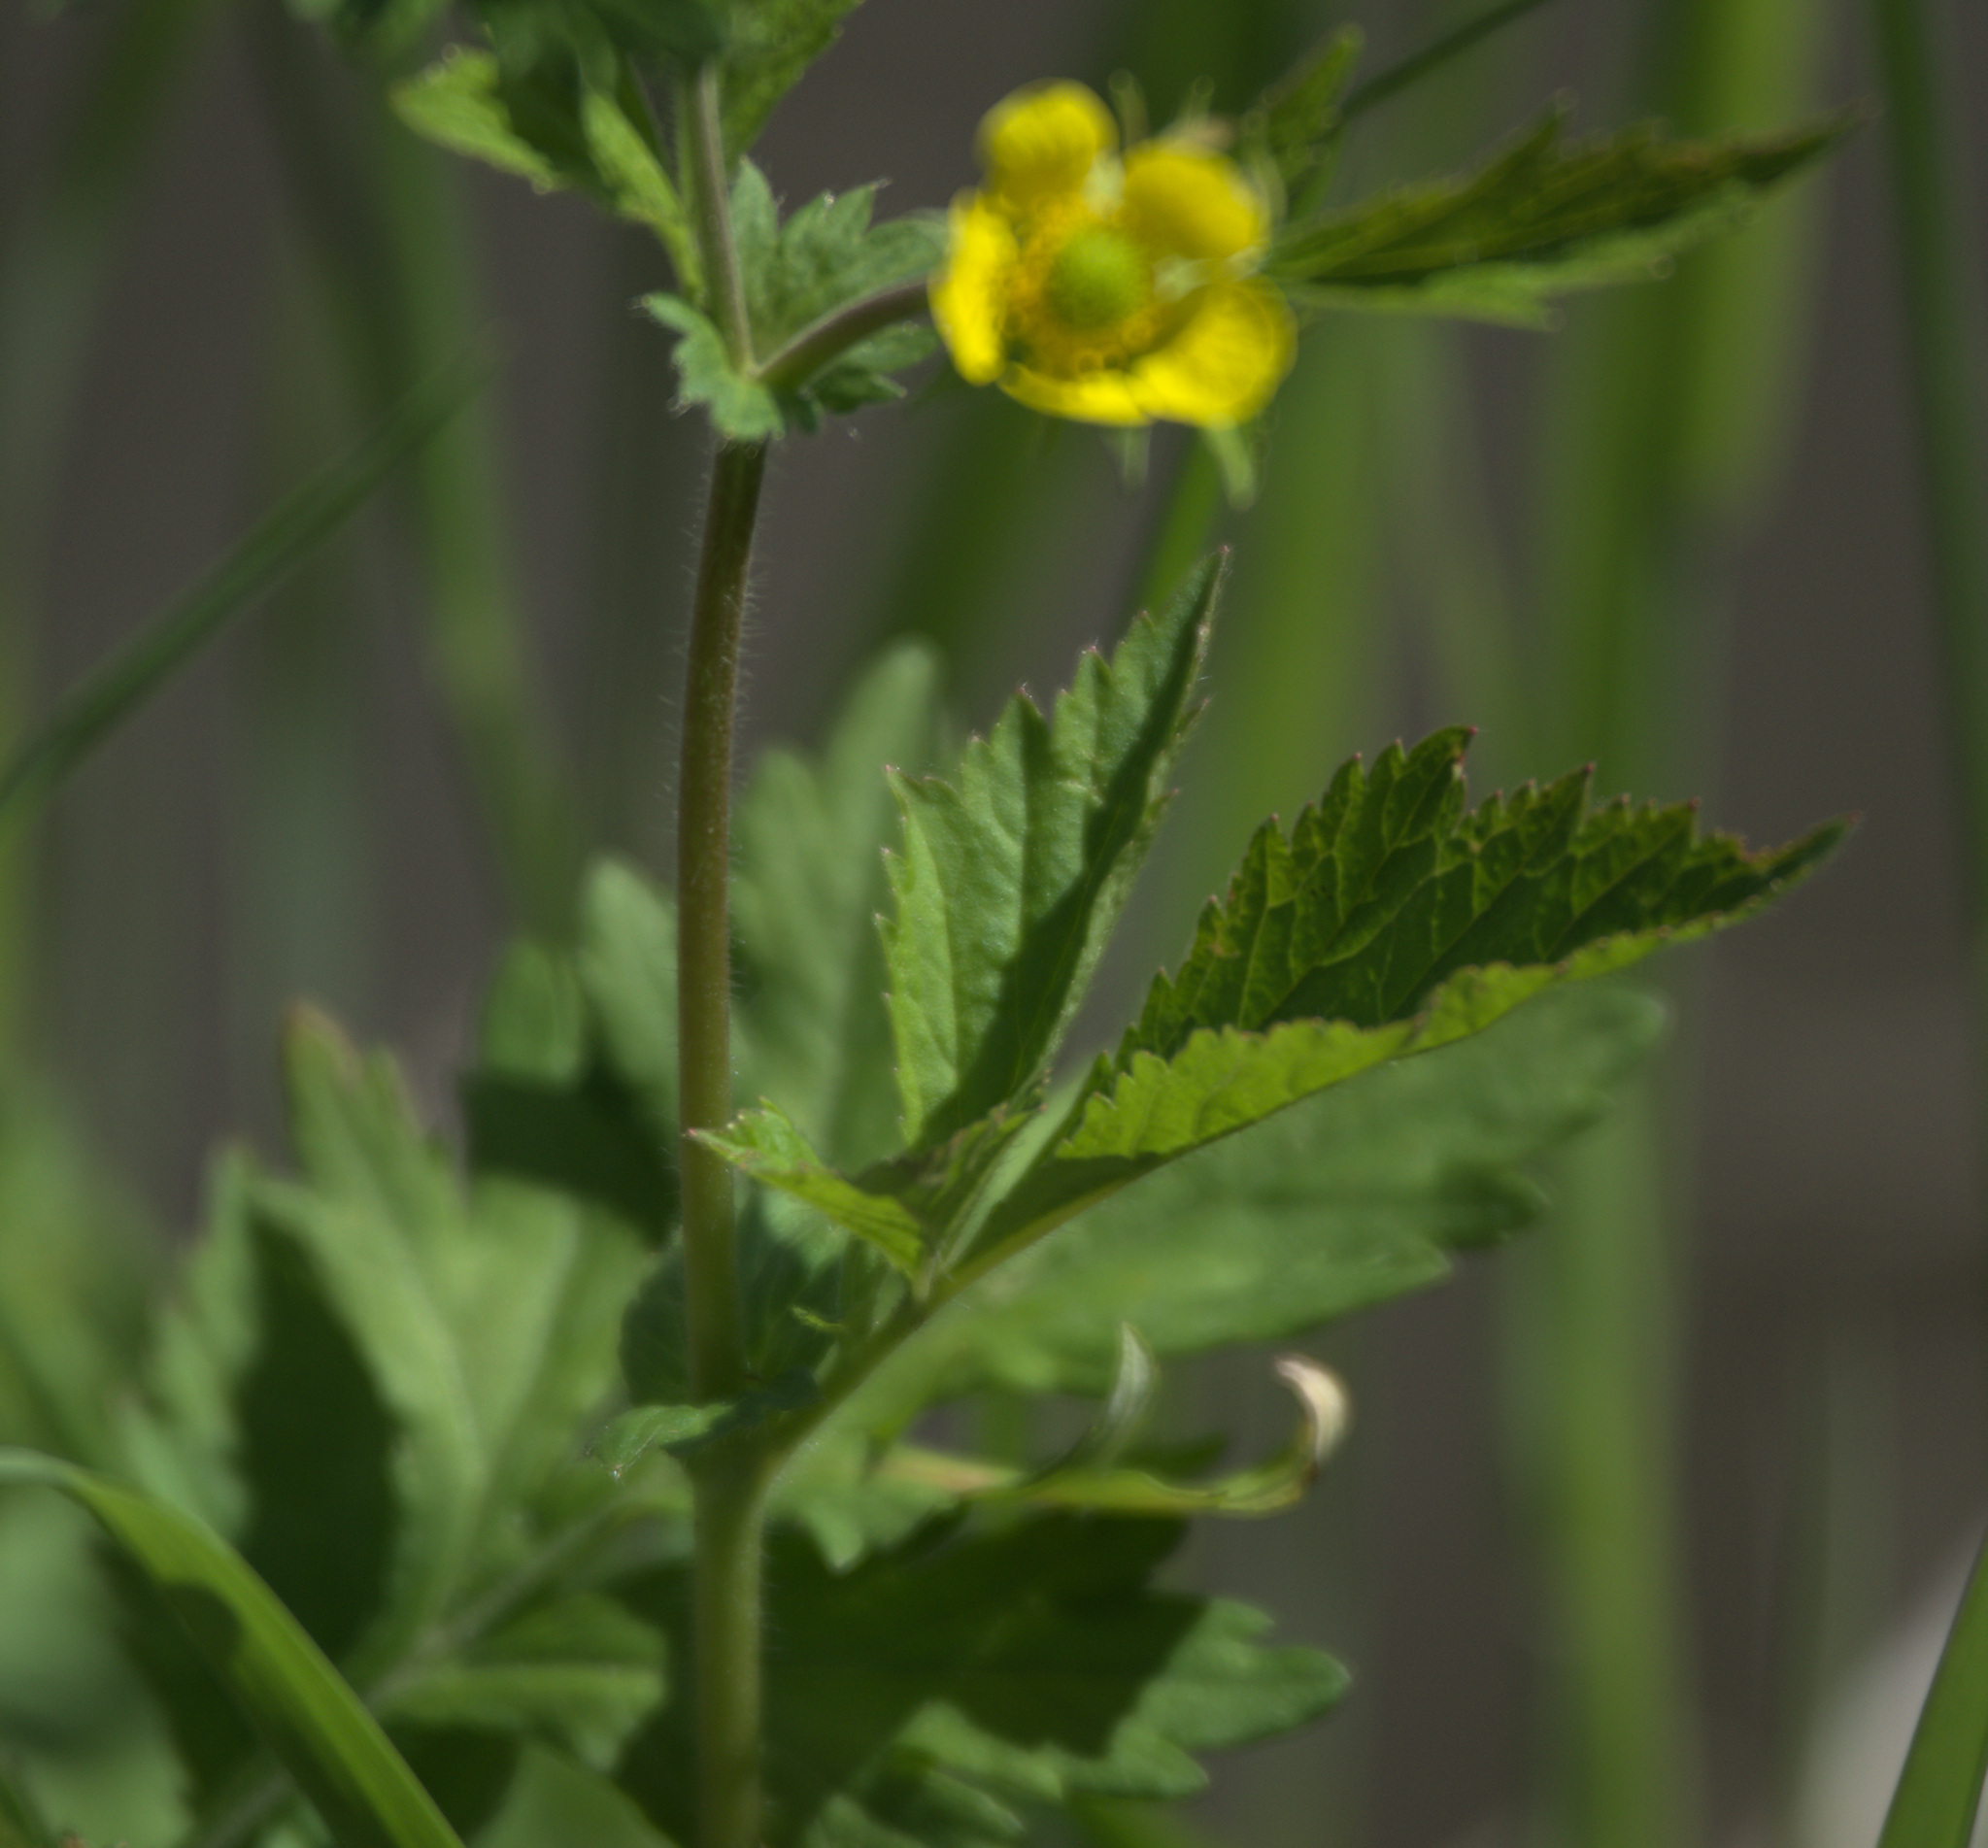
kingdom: Plantae
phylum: Tracheophyta
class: Magnoliopsida
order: Rosales
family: Rosaceae
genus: Geum
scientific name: Geum aleppicum
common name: Yellow avens
